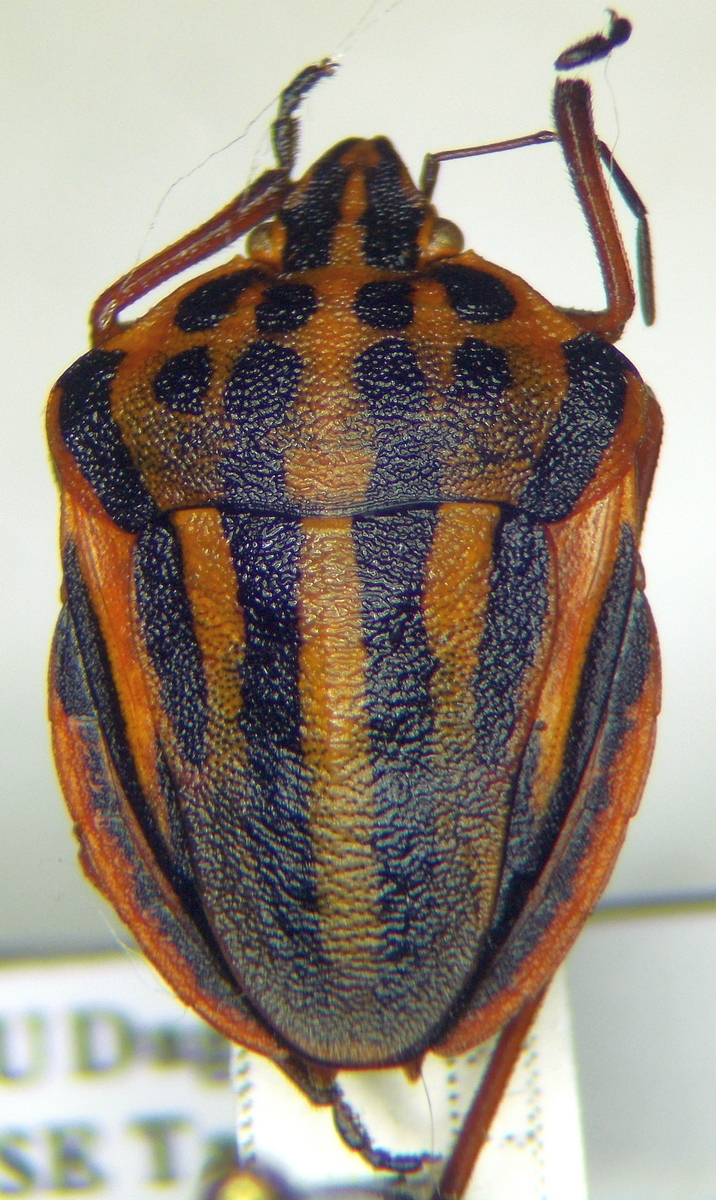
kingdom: Animalia
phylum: Arthropoda
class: Insecta
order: Hemiptera
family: Pentatomidae
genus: Graphosoma
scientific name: Graphosoma semipunctatum
